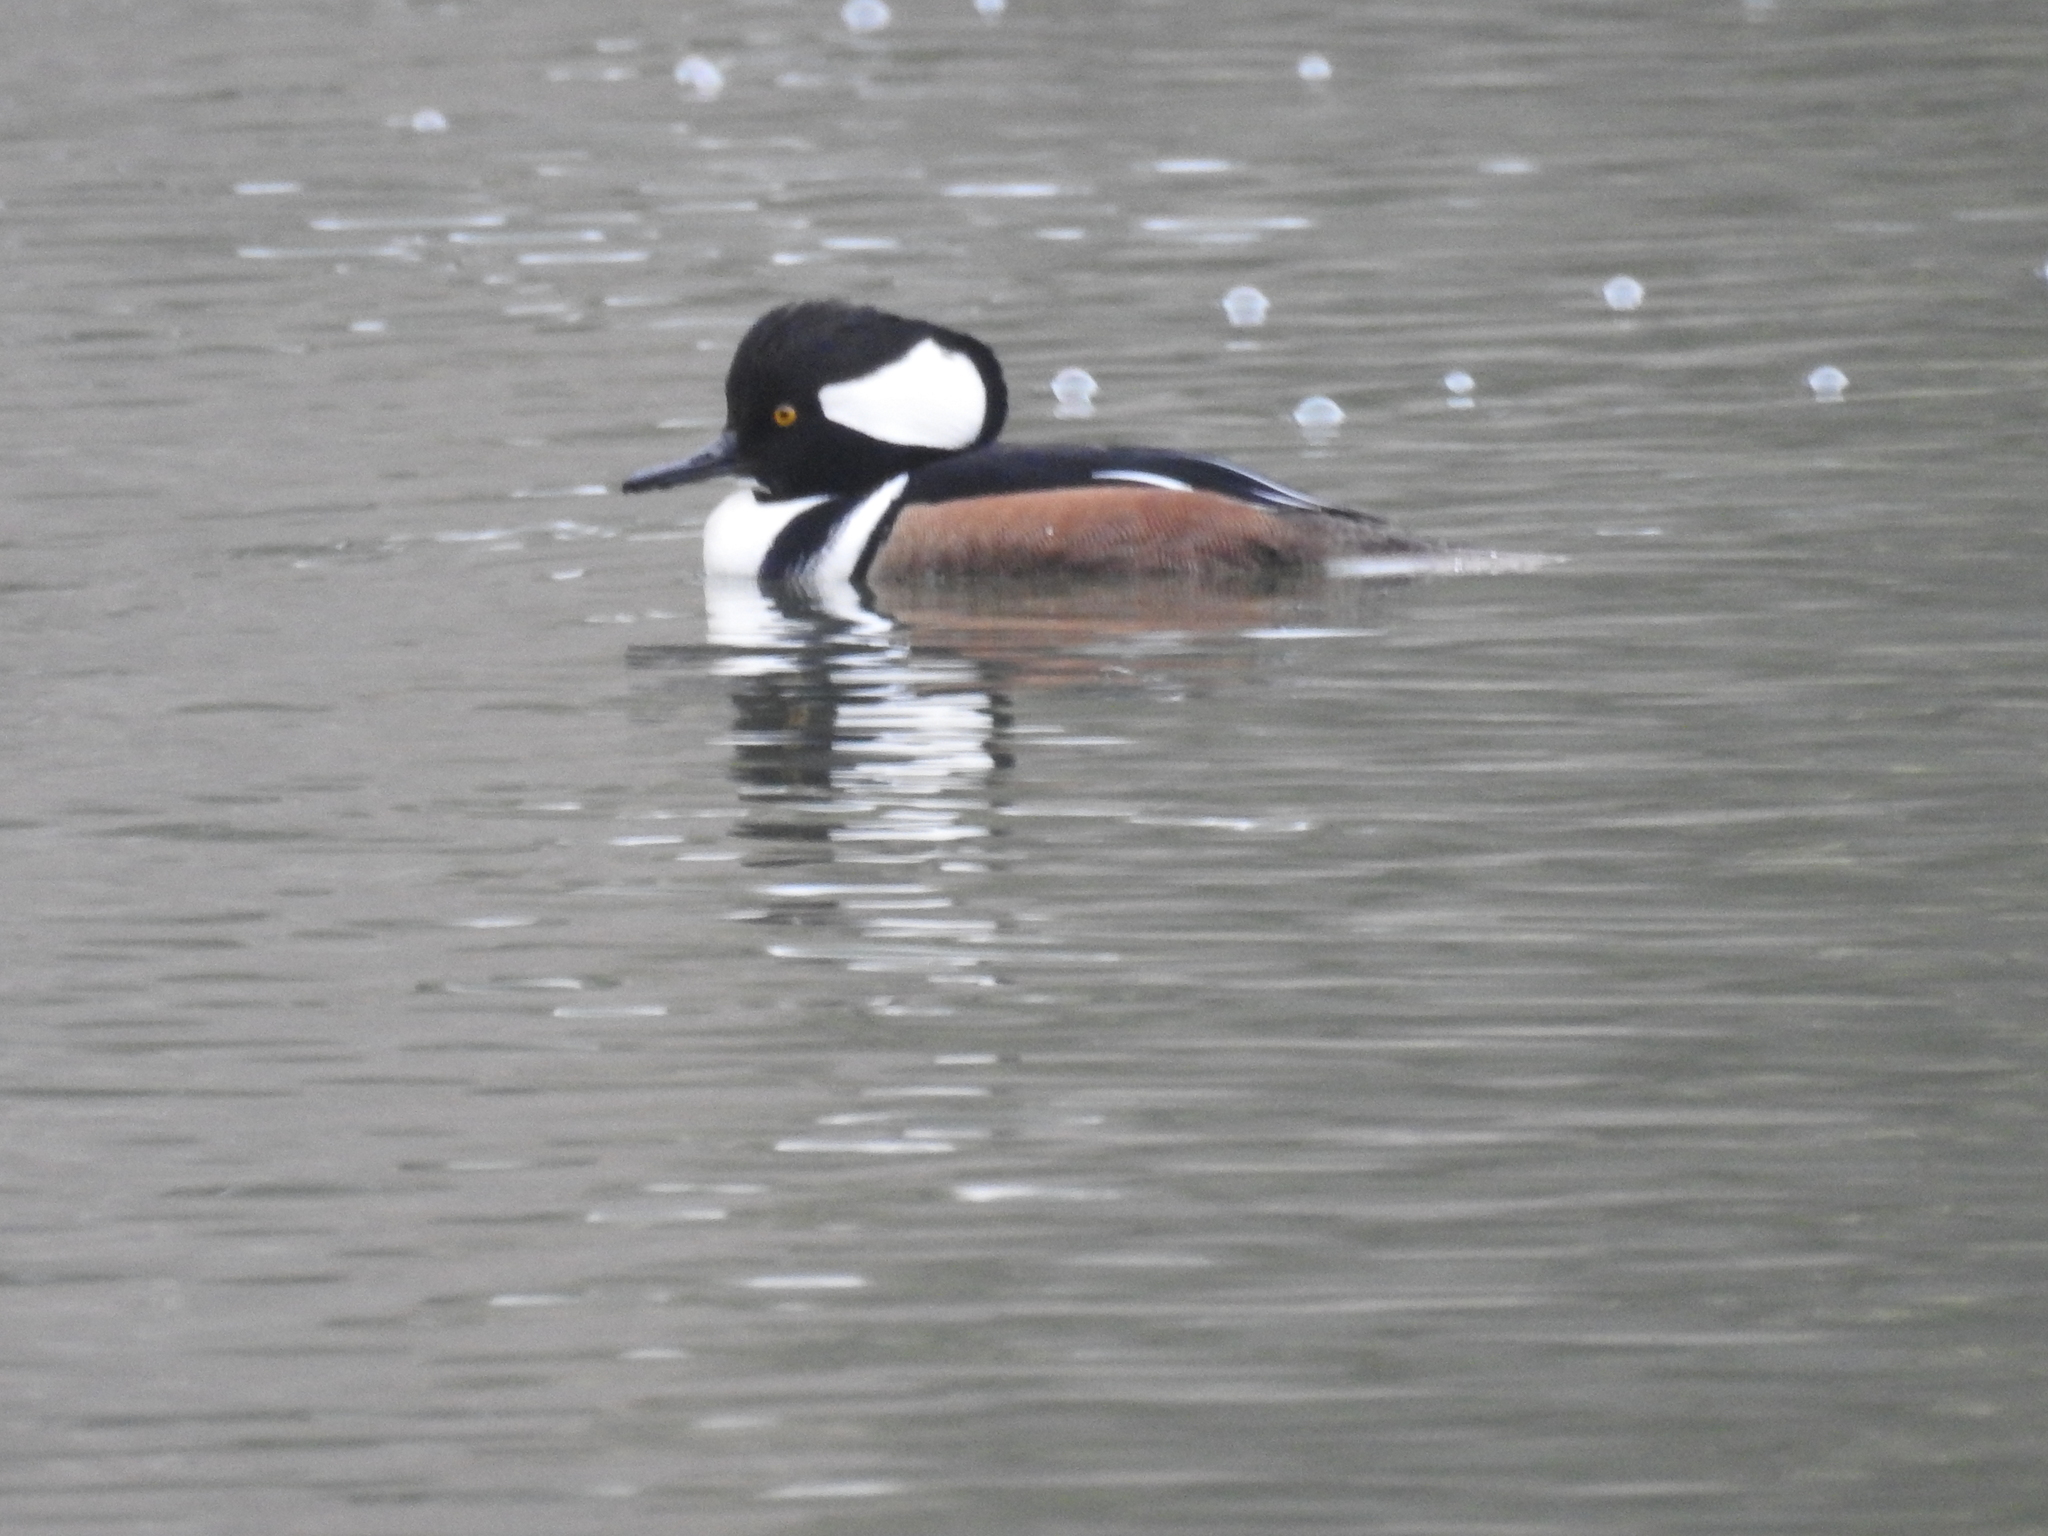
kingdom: Animalia
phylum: Chordata
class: Aves
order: Anseriformes
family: Anatidae
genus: Lophodytes
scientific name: Lophodytes cucullatus
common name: Hooded merganser
